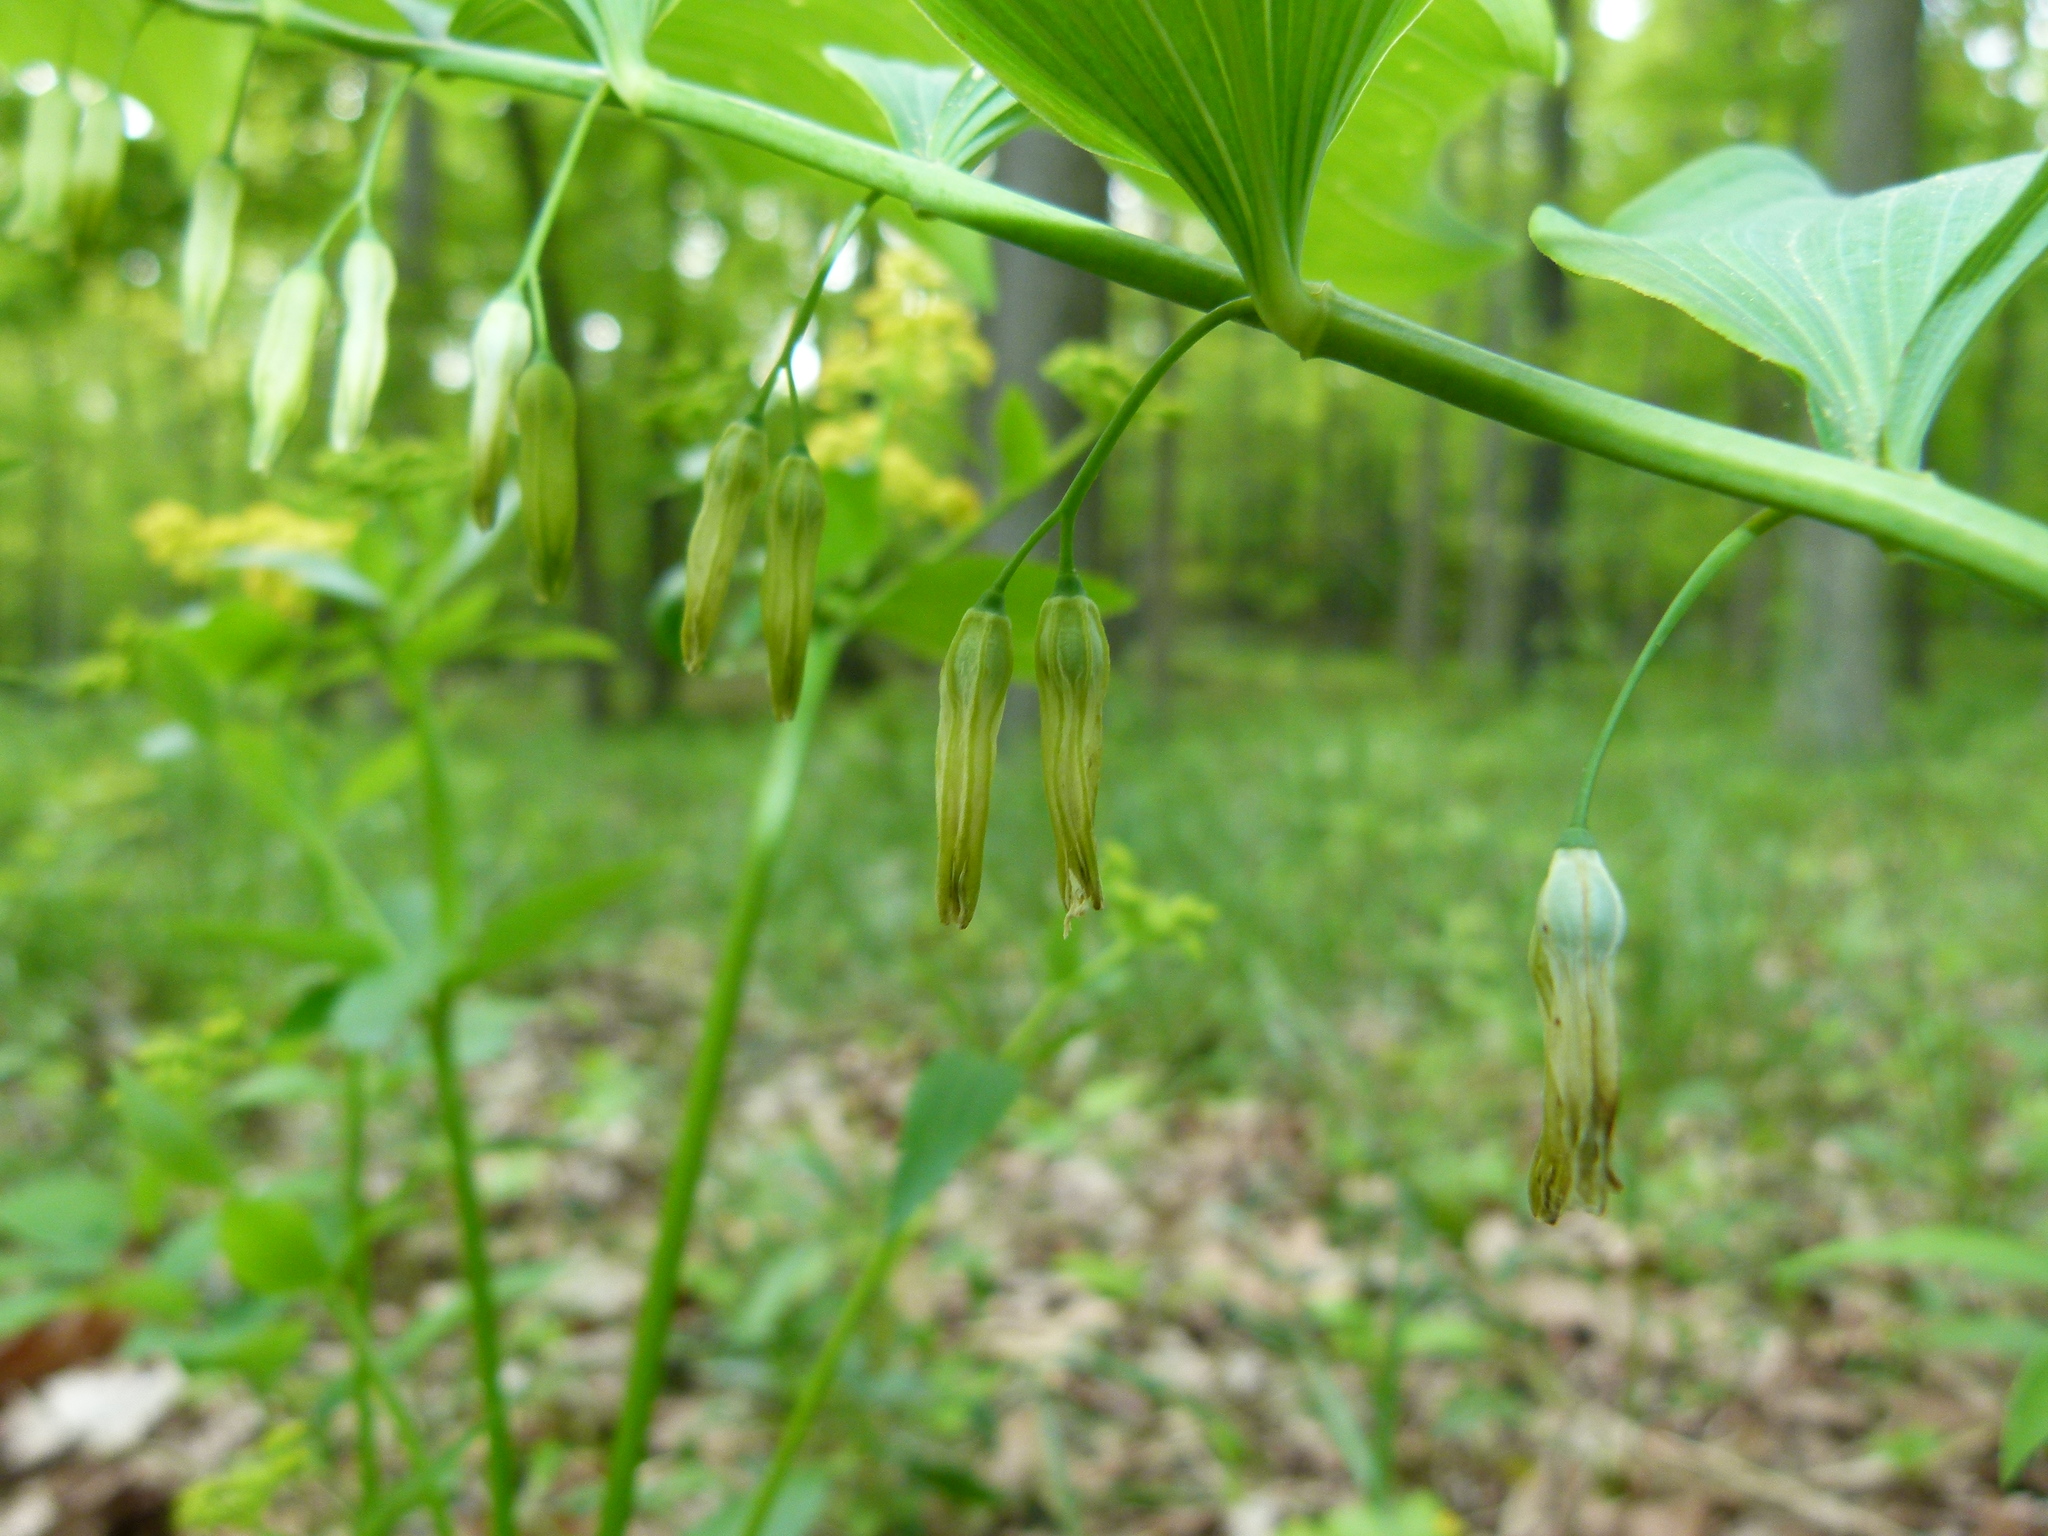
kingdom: Plantae
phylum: Tracheophyta
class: Liliopsida
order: Asparagales
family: Asparagaceae
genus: Polygonatum
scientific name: Polygonatum pubescens
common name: Downy solomon's seal
